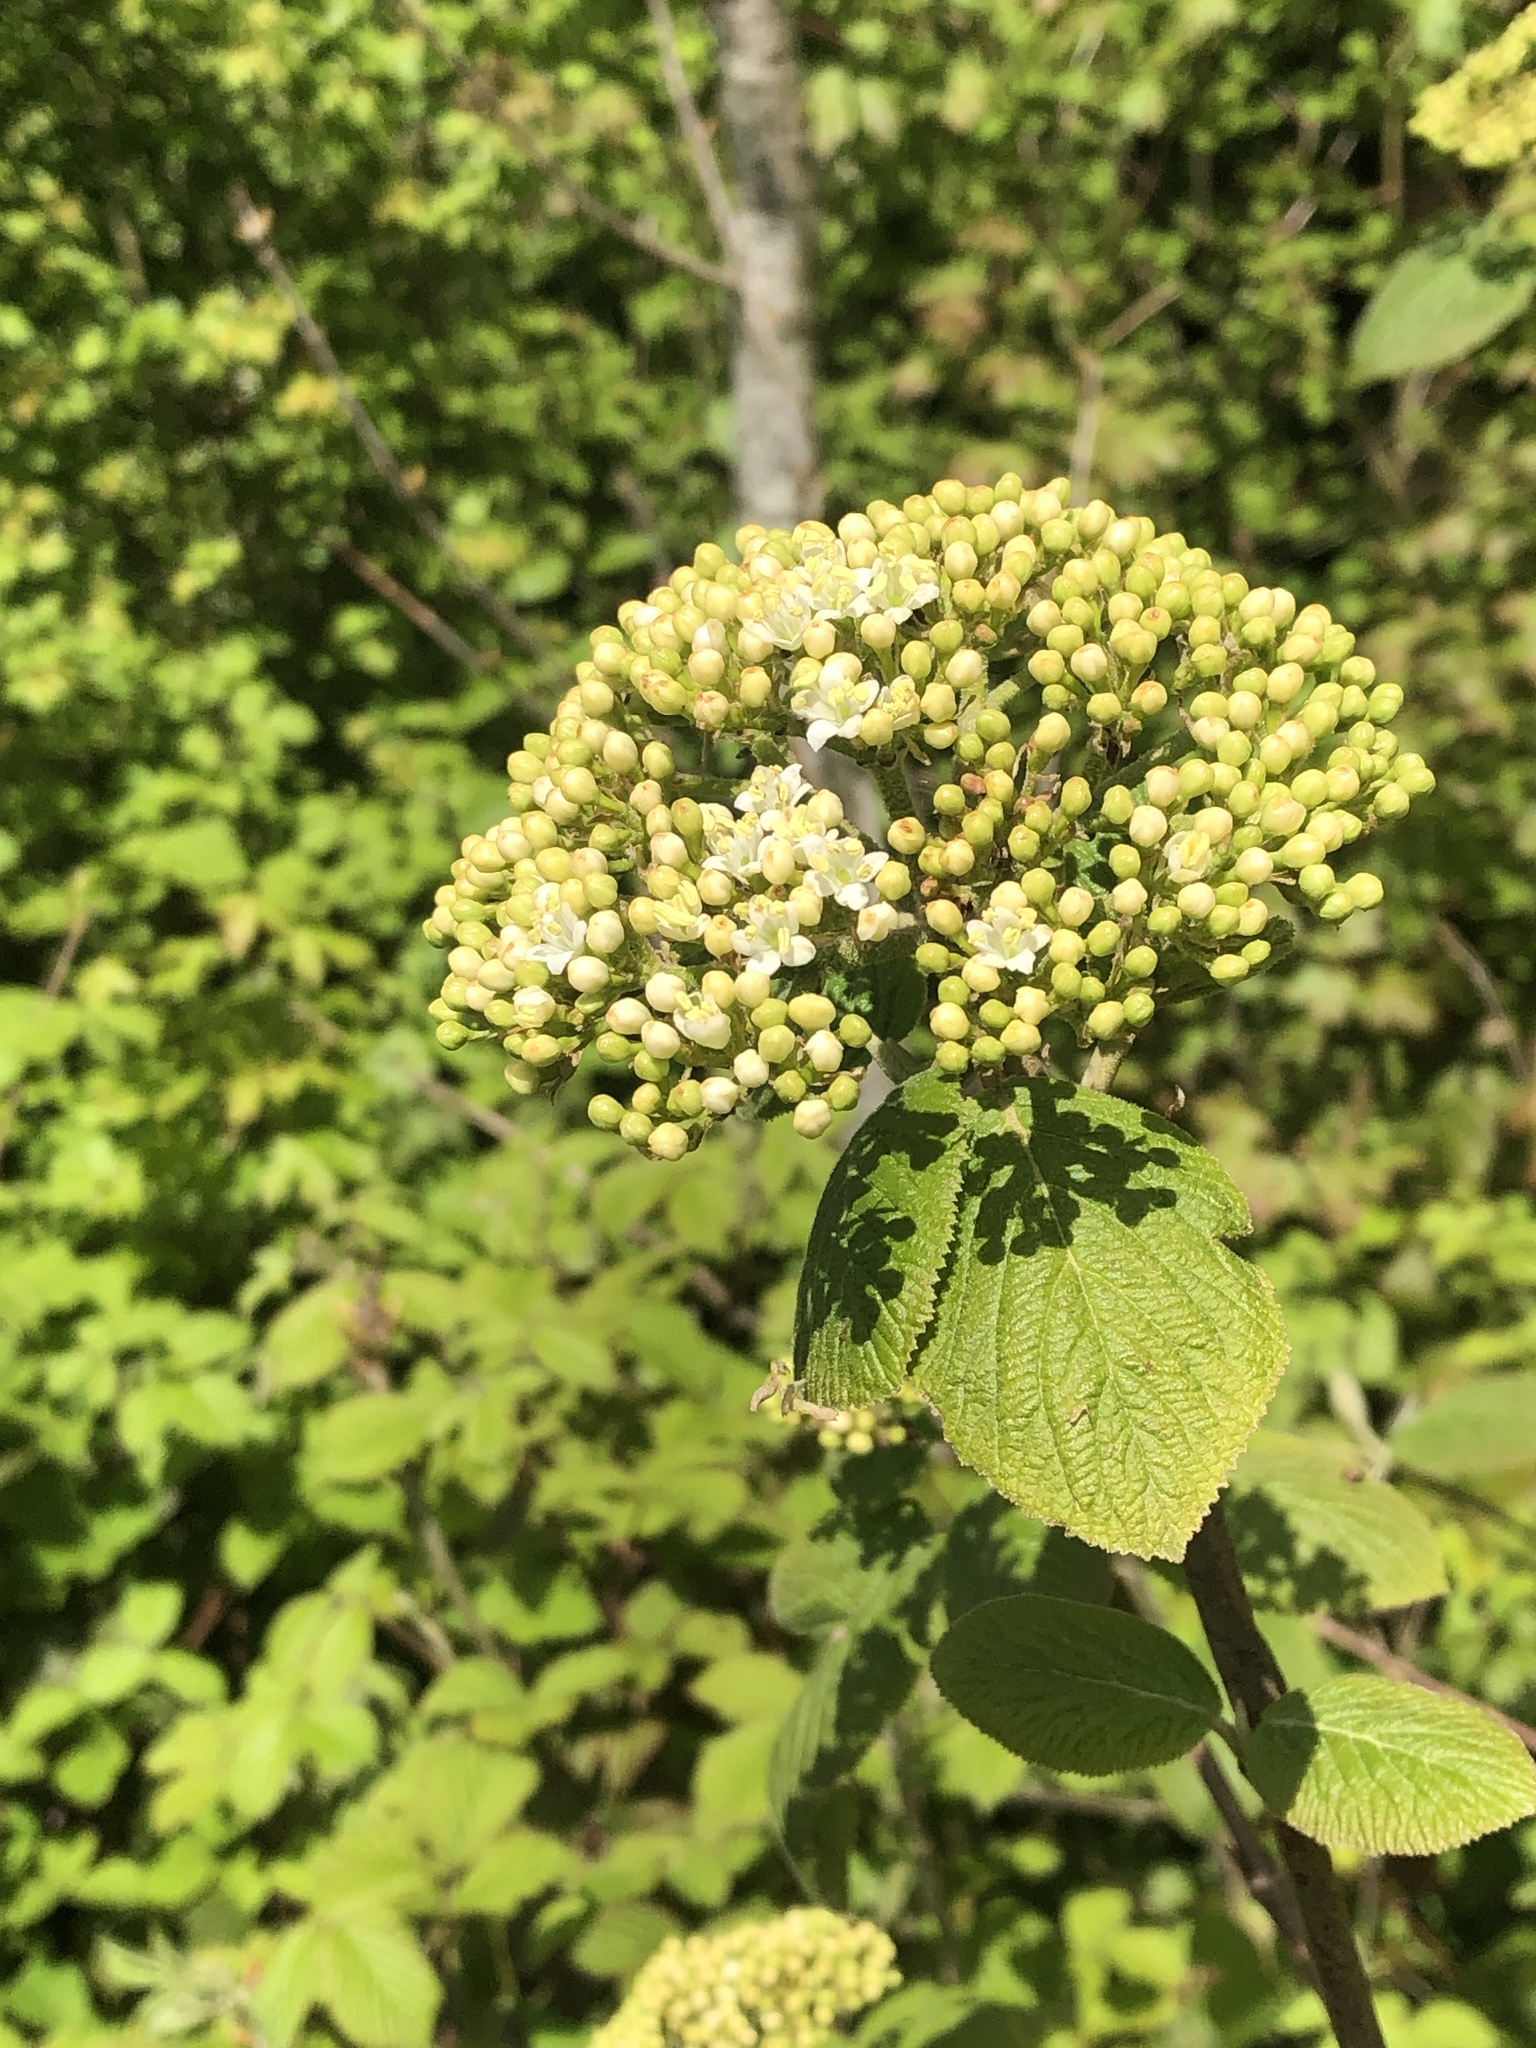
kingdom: Plantae
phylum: Tracheophyta
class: Magnoliopsida
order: Dipsacales
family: Viburnaceae
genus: Viburnum
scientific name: Viburnum lantana
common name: Wayfaring tree
